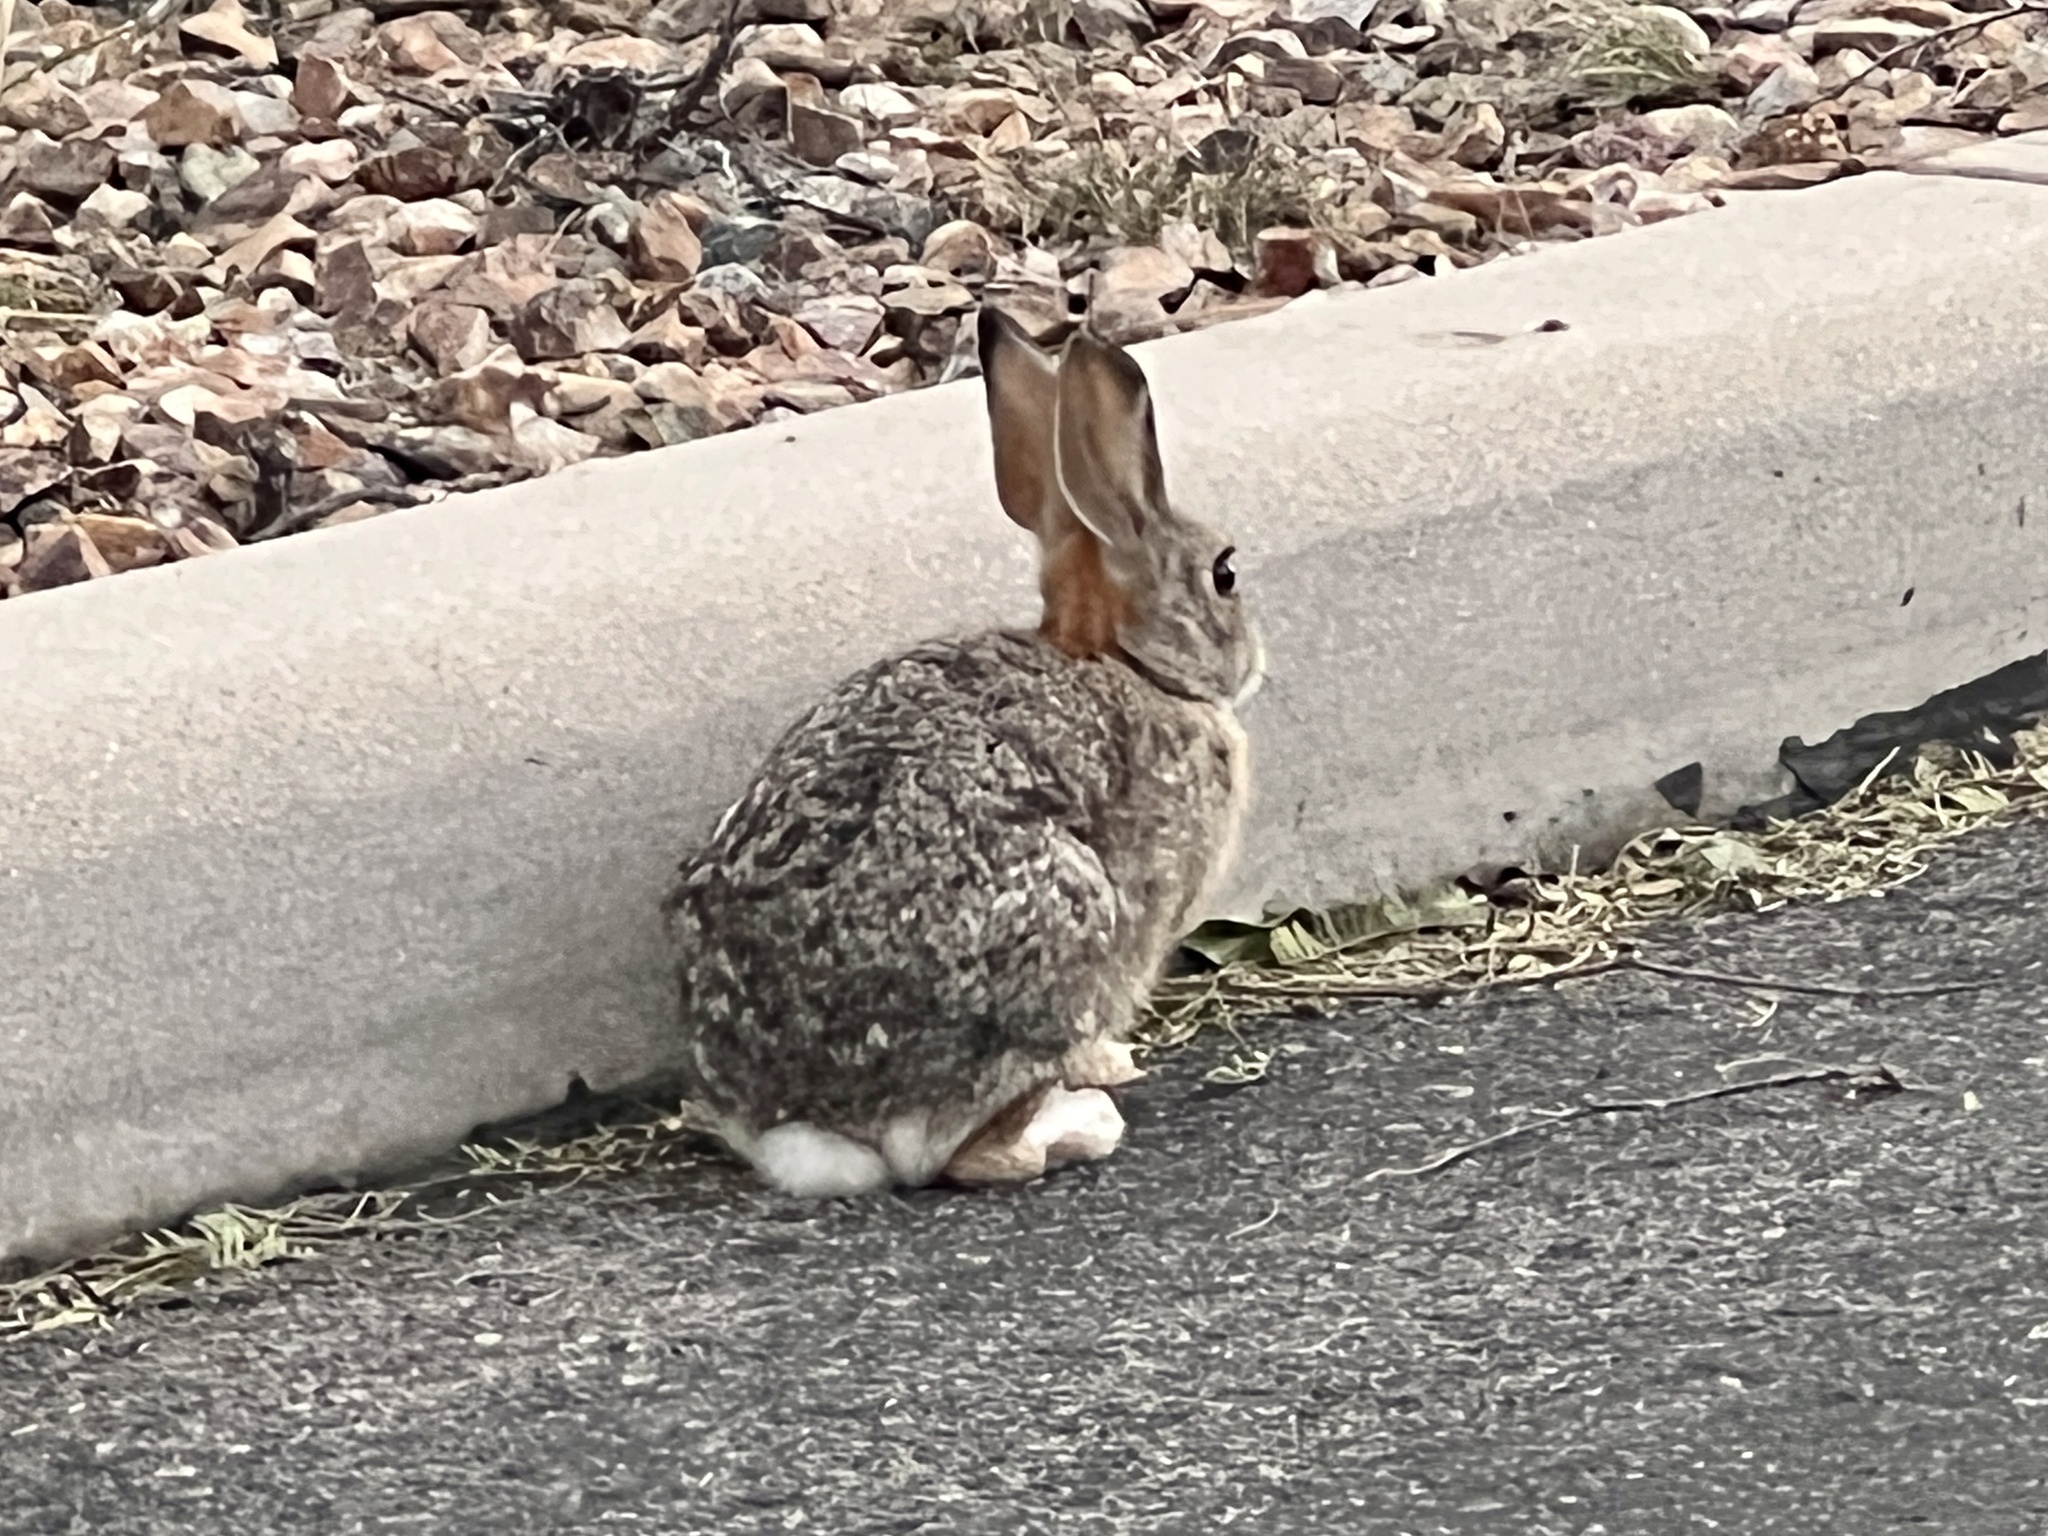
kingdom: Animalia
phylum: Chordata
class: Mammalia
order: Lagomorpha
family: Leporidae
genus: Sylvilagus
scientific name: Sylvilagus audubonii
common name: Desert cottontail
